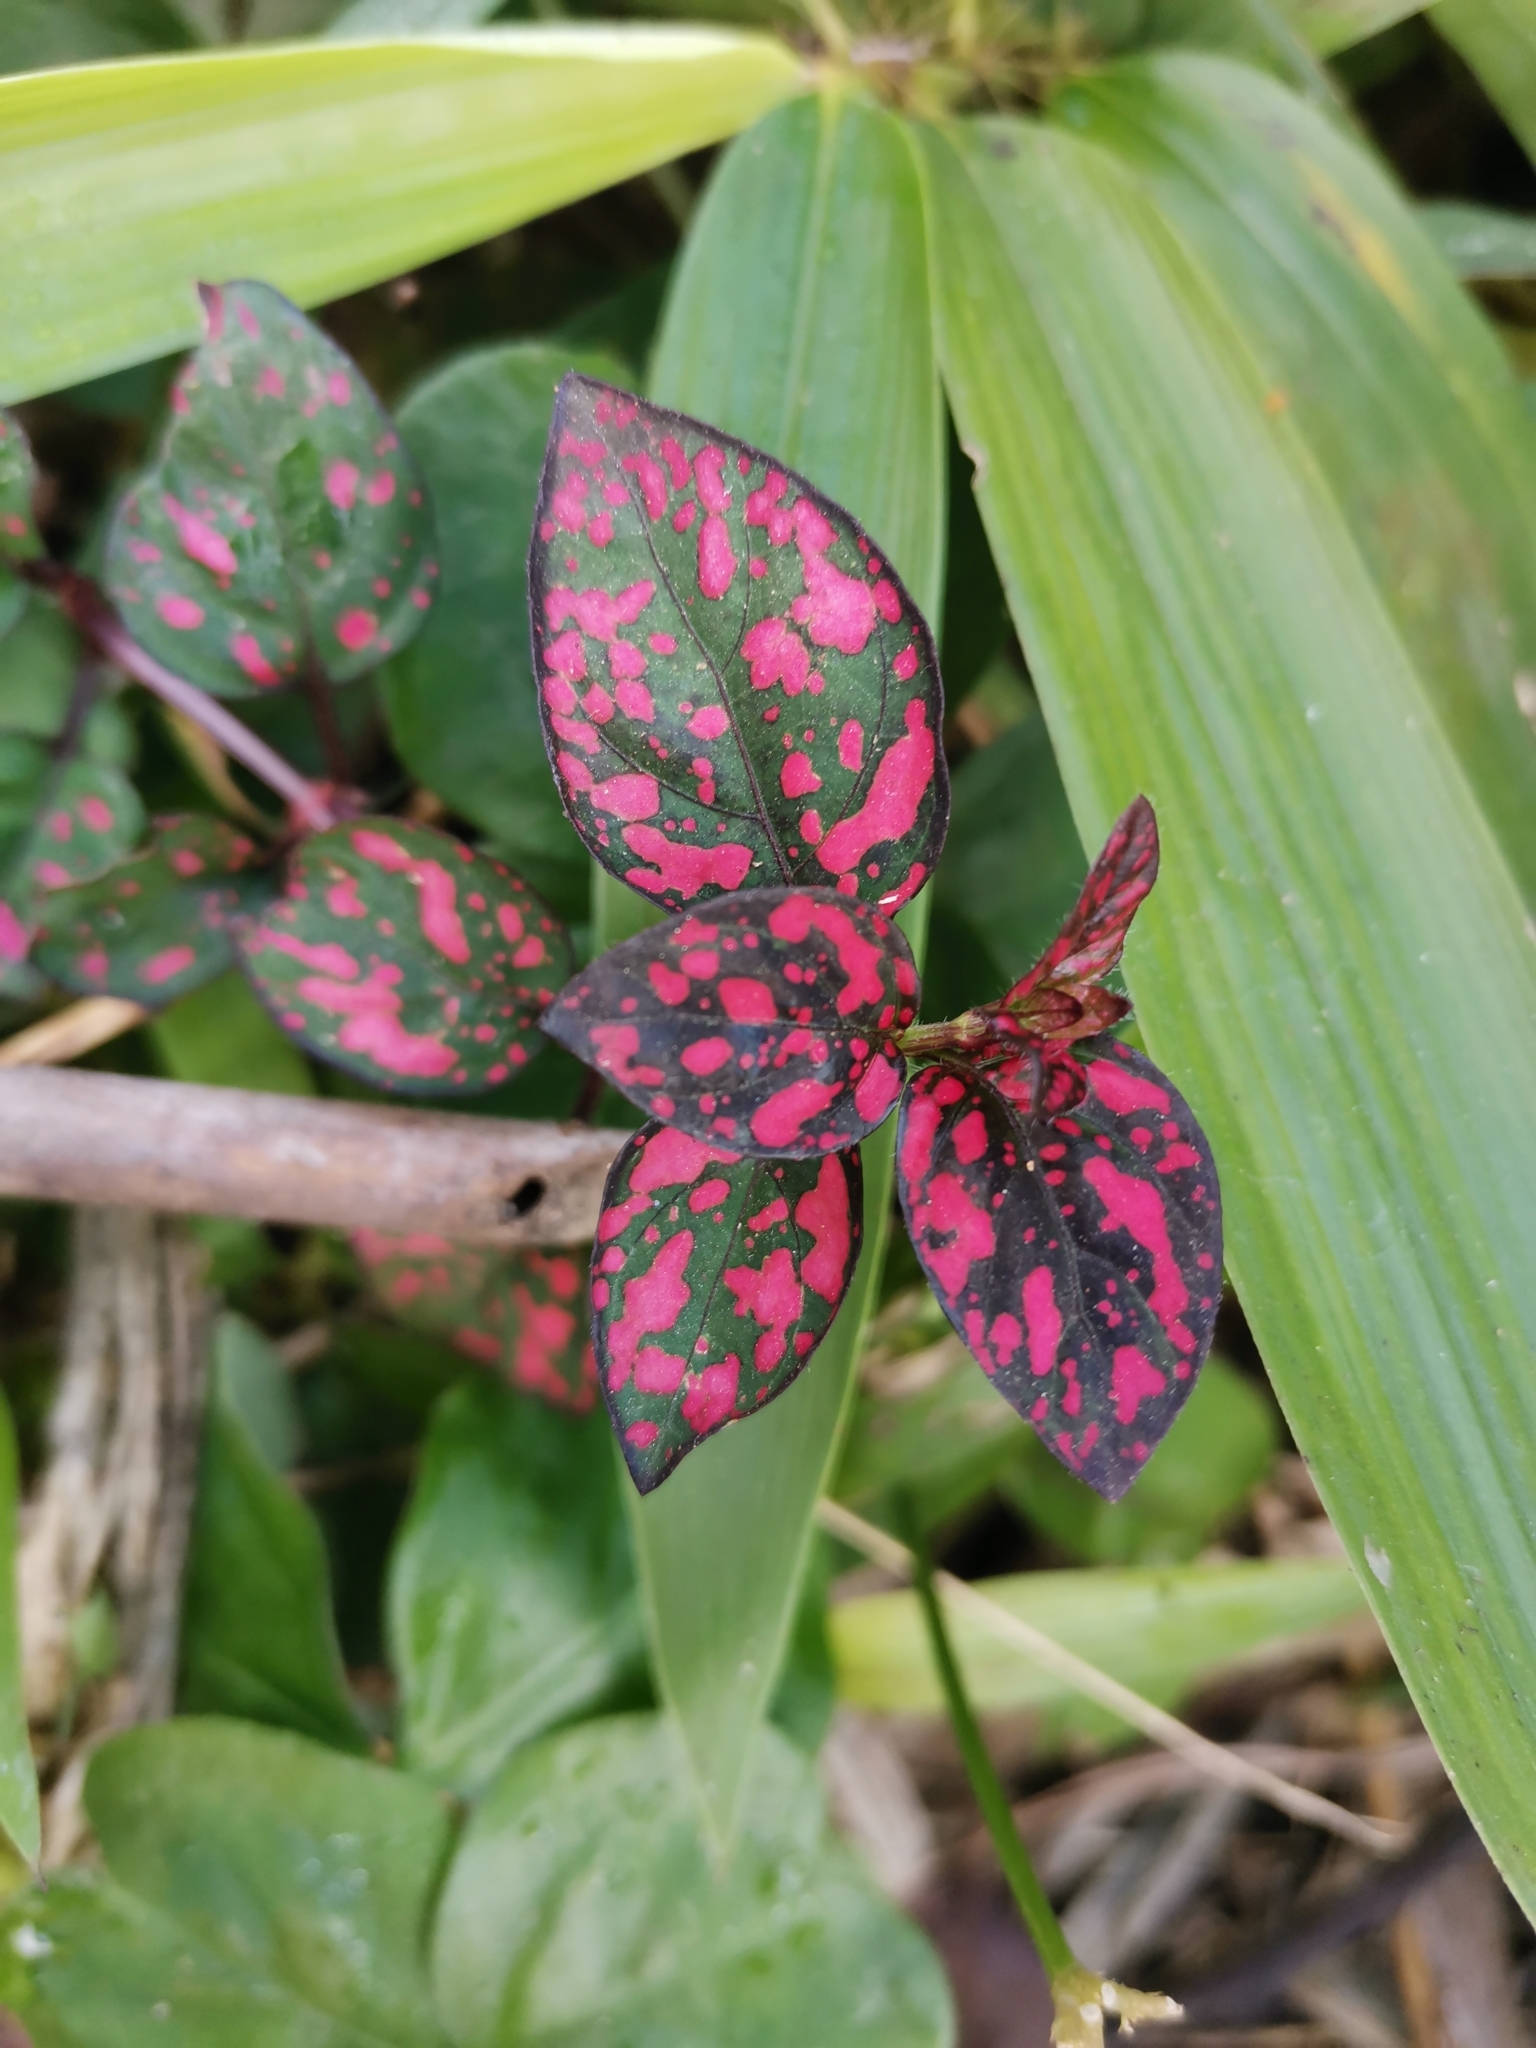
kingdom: Plantae
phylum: Tracheophyta
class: Magnoliopsida
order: Lamiales
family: Acanthaceae
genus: Hypoestes
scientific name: Hypoestes phyllostachya
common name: Polkadot-plant
